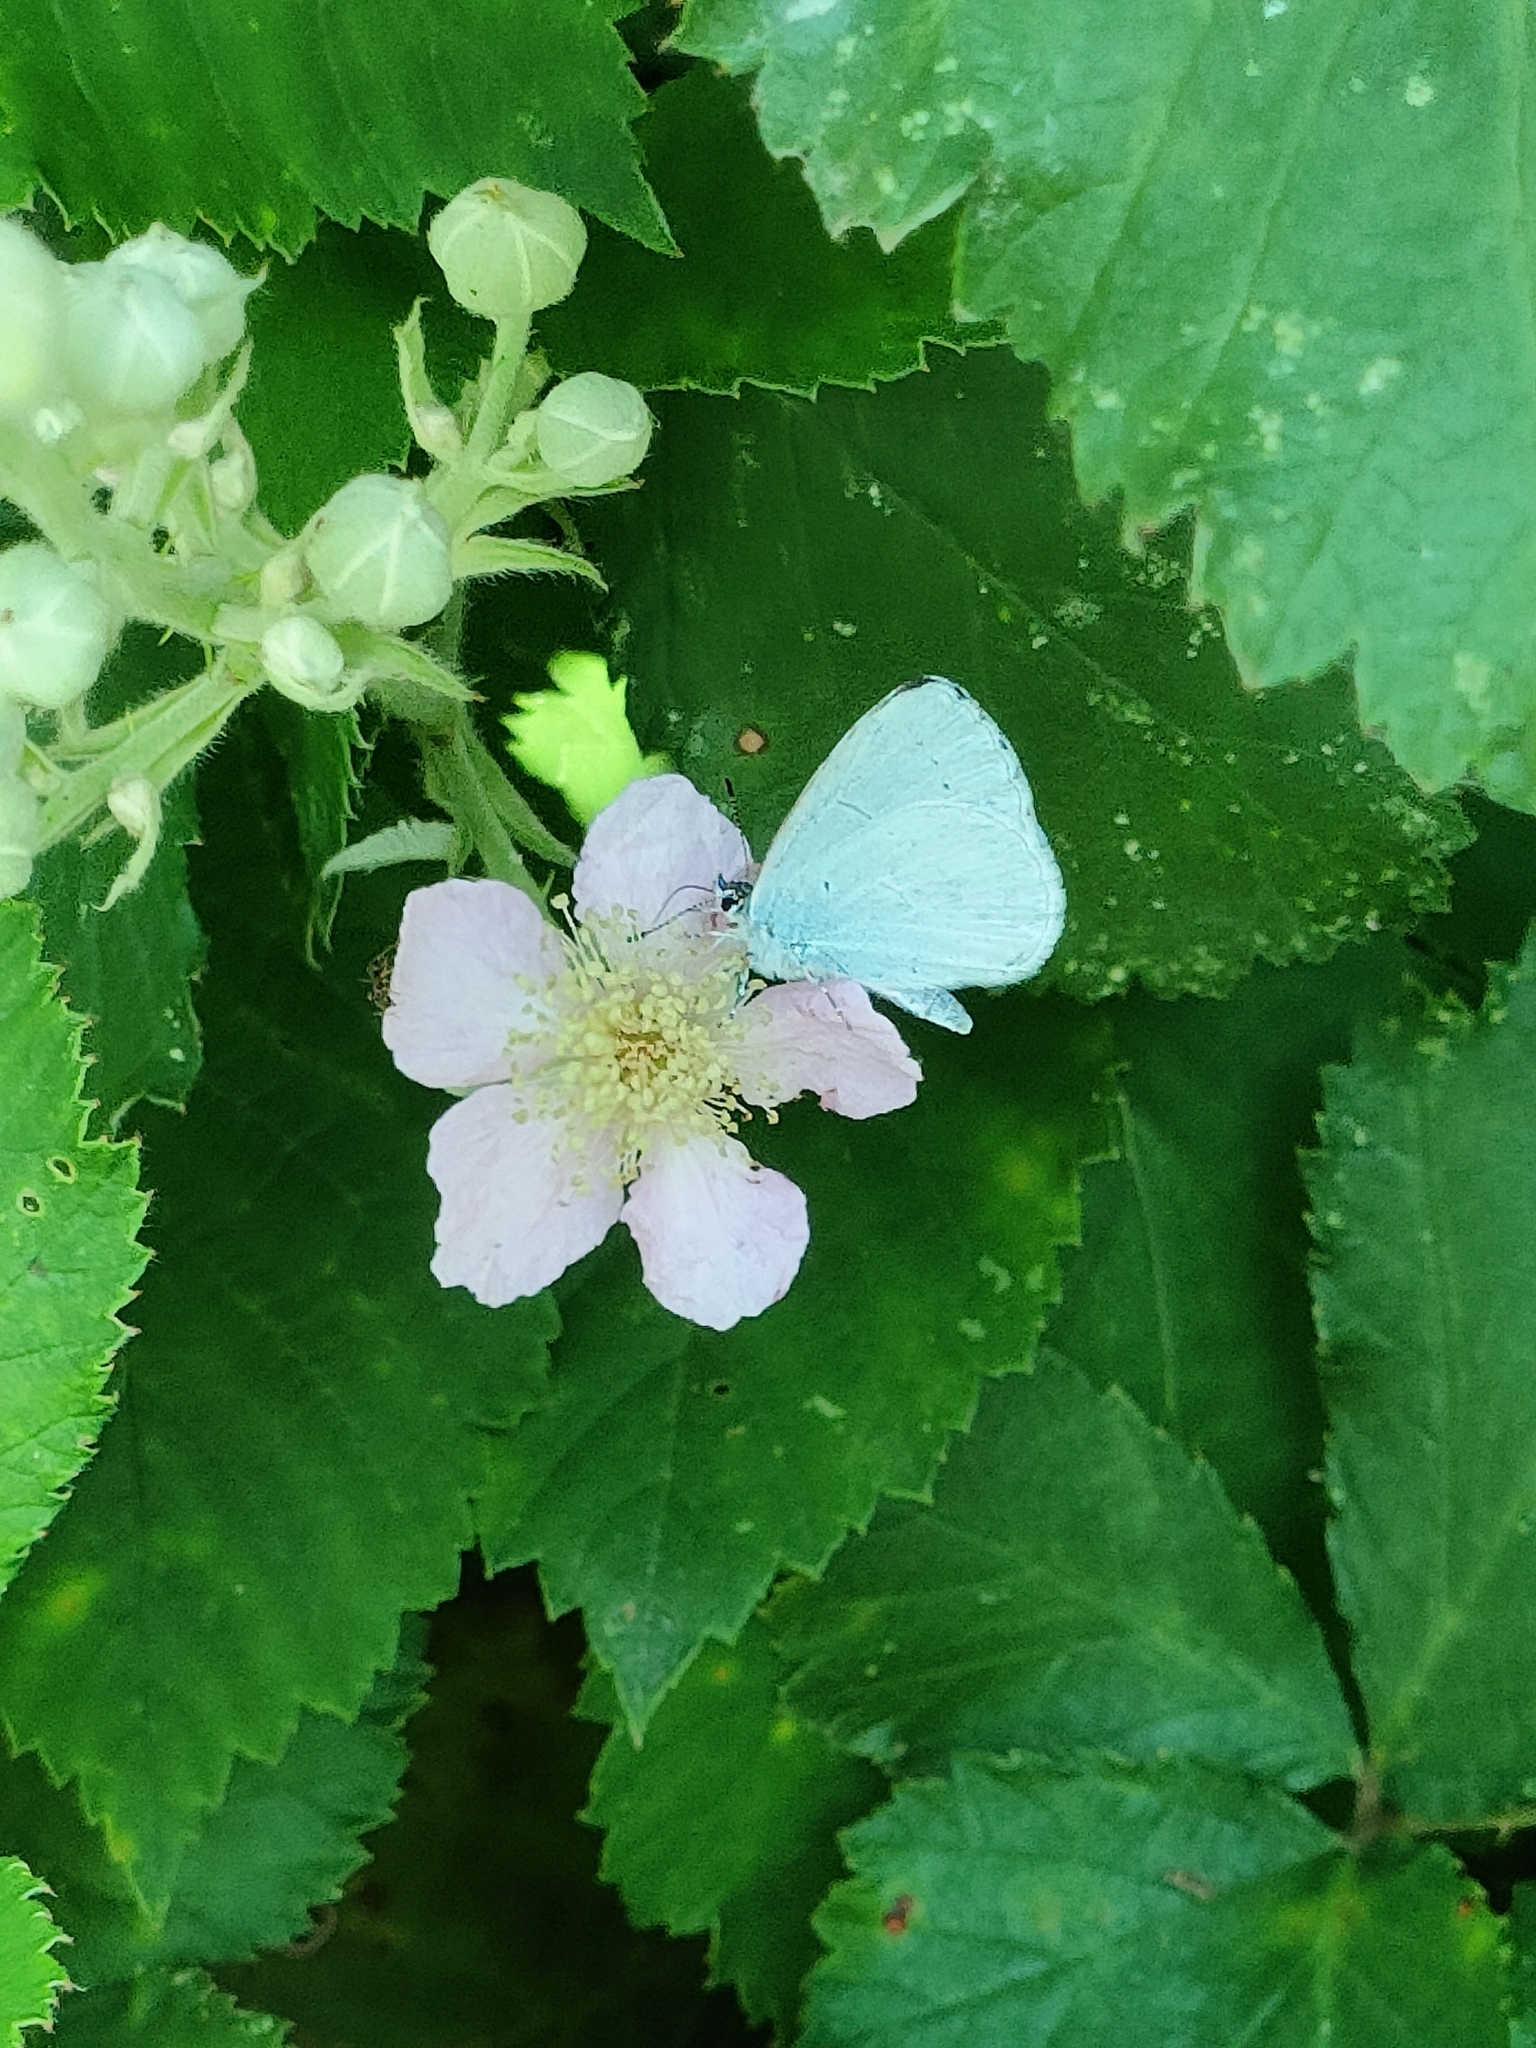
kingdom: Animalia
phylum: Arthropoda
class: Insecta
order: Lepidoptera
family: Lycaenidae
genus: Celastrina
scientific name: Celastrina argiolus
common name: Holly blue
